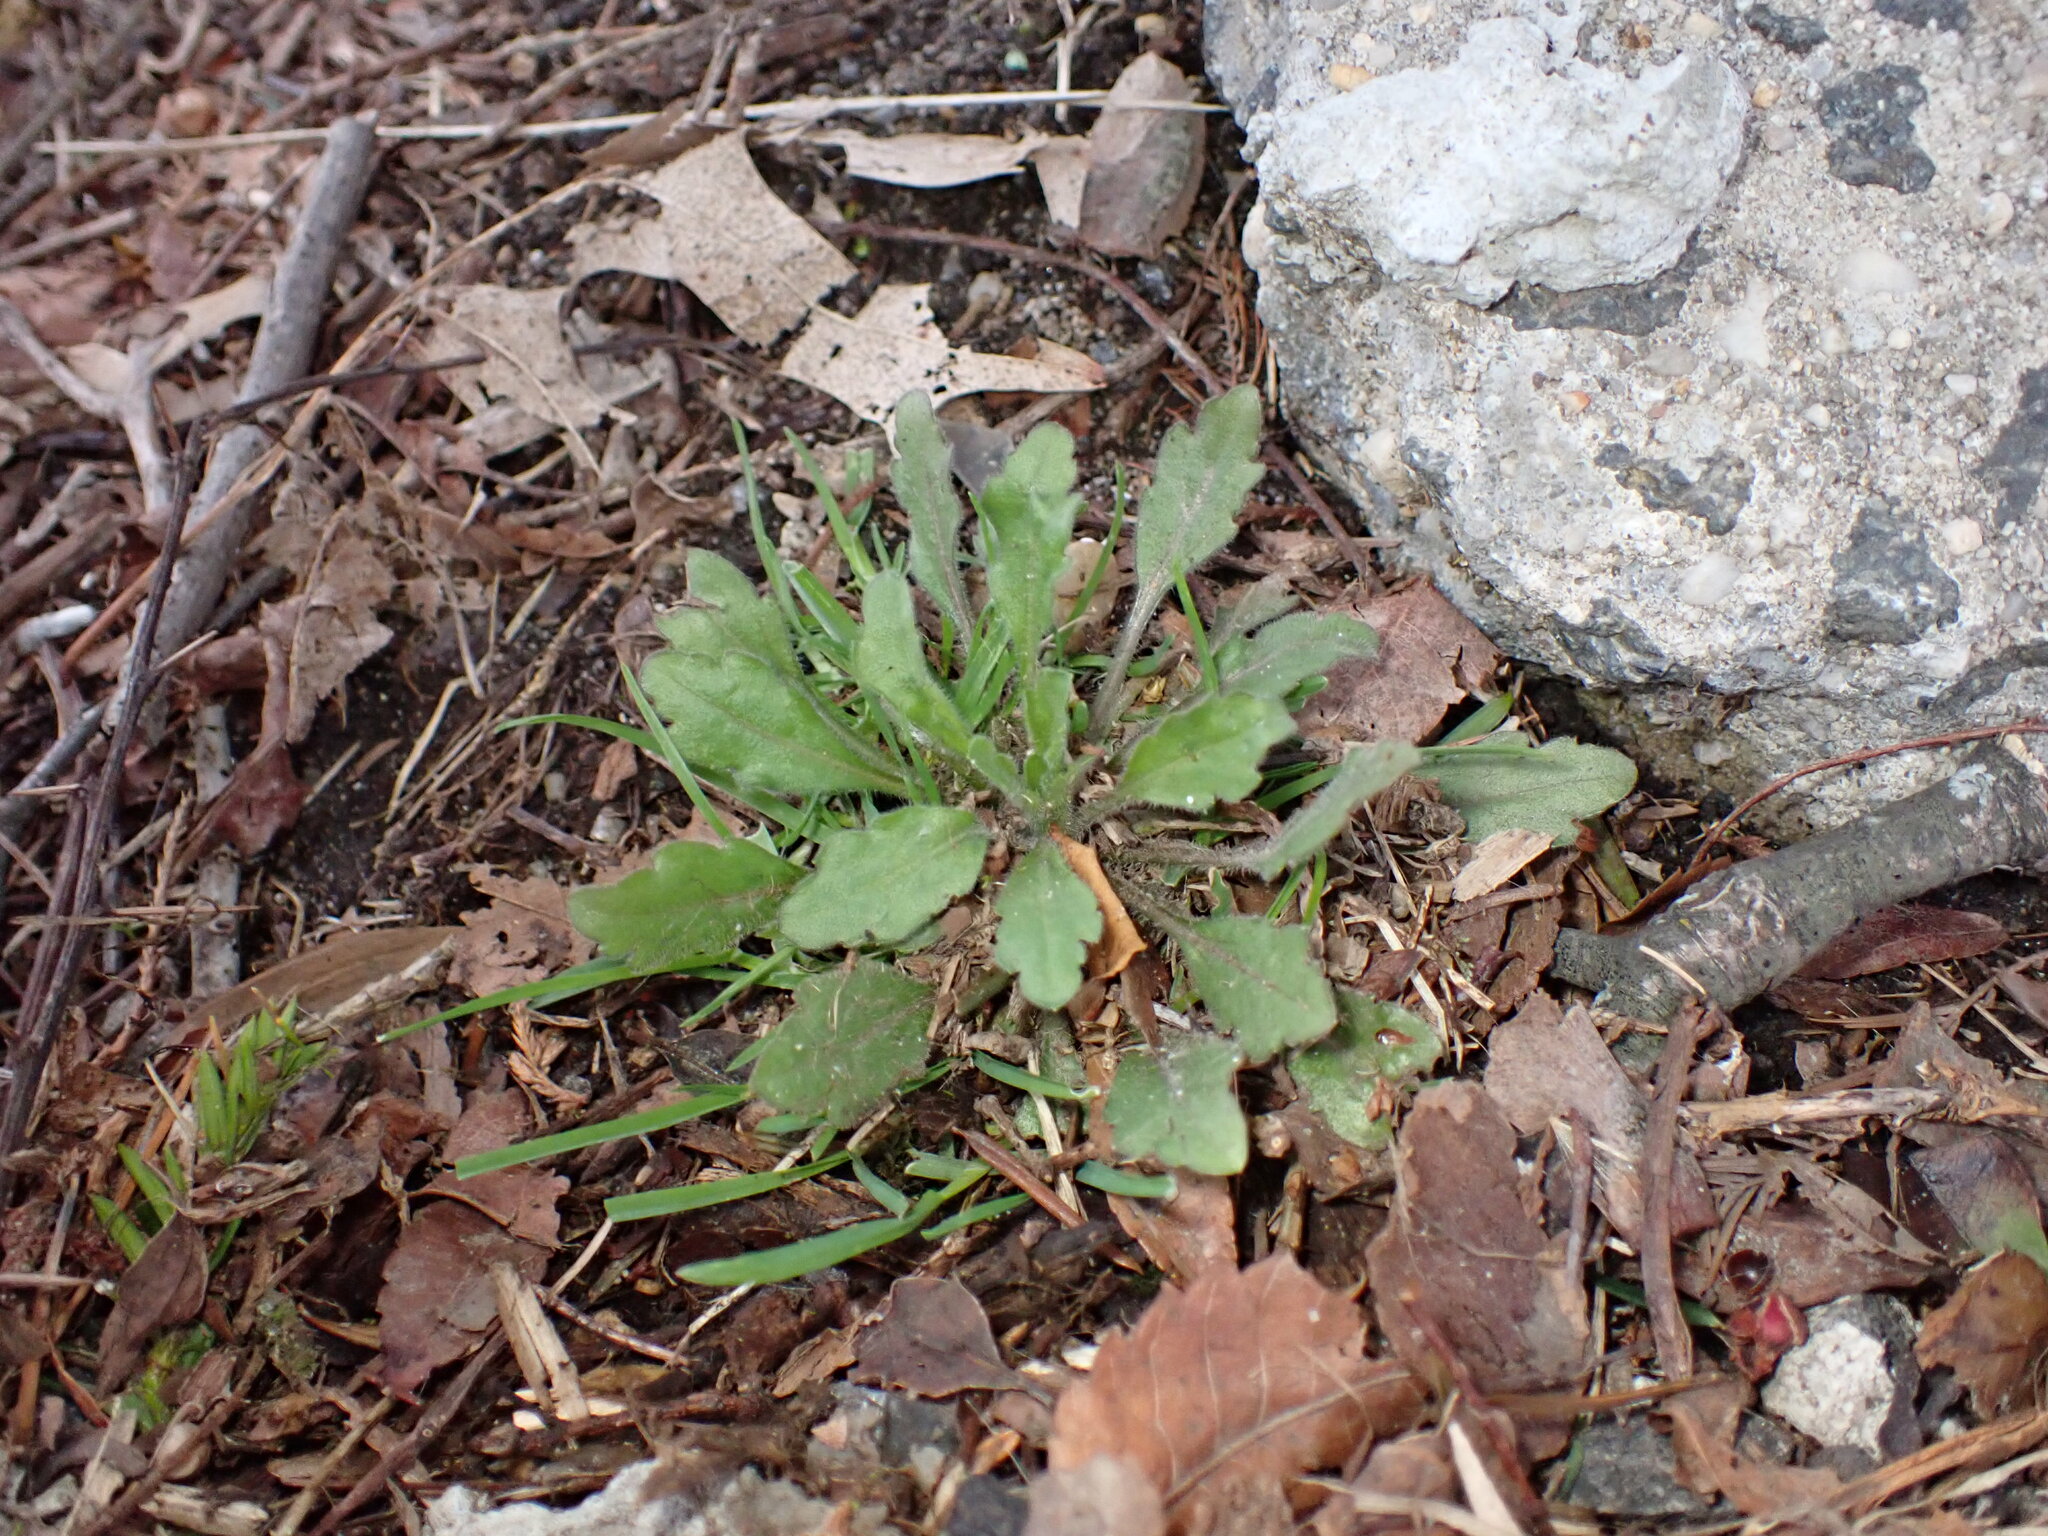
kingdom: Plantae
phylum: Tracheophyta
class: Magnoliopsida
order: Brassicales
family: Brassicaceae
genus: Arabidopsis
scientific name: Arabidopsis thaliana
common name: Thale cress
